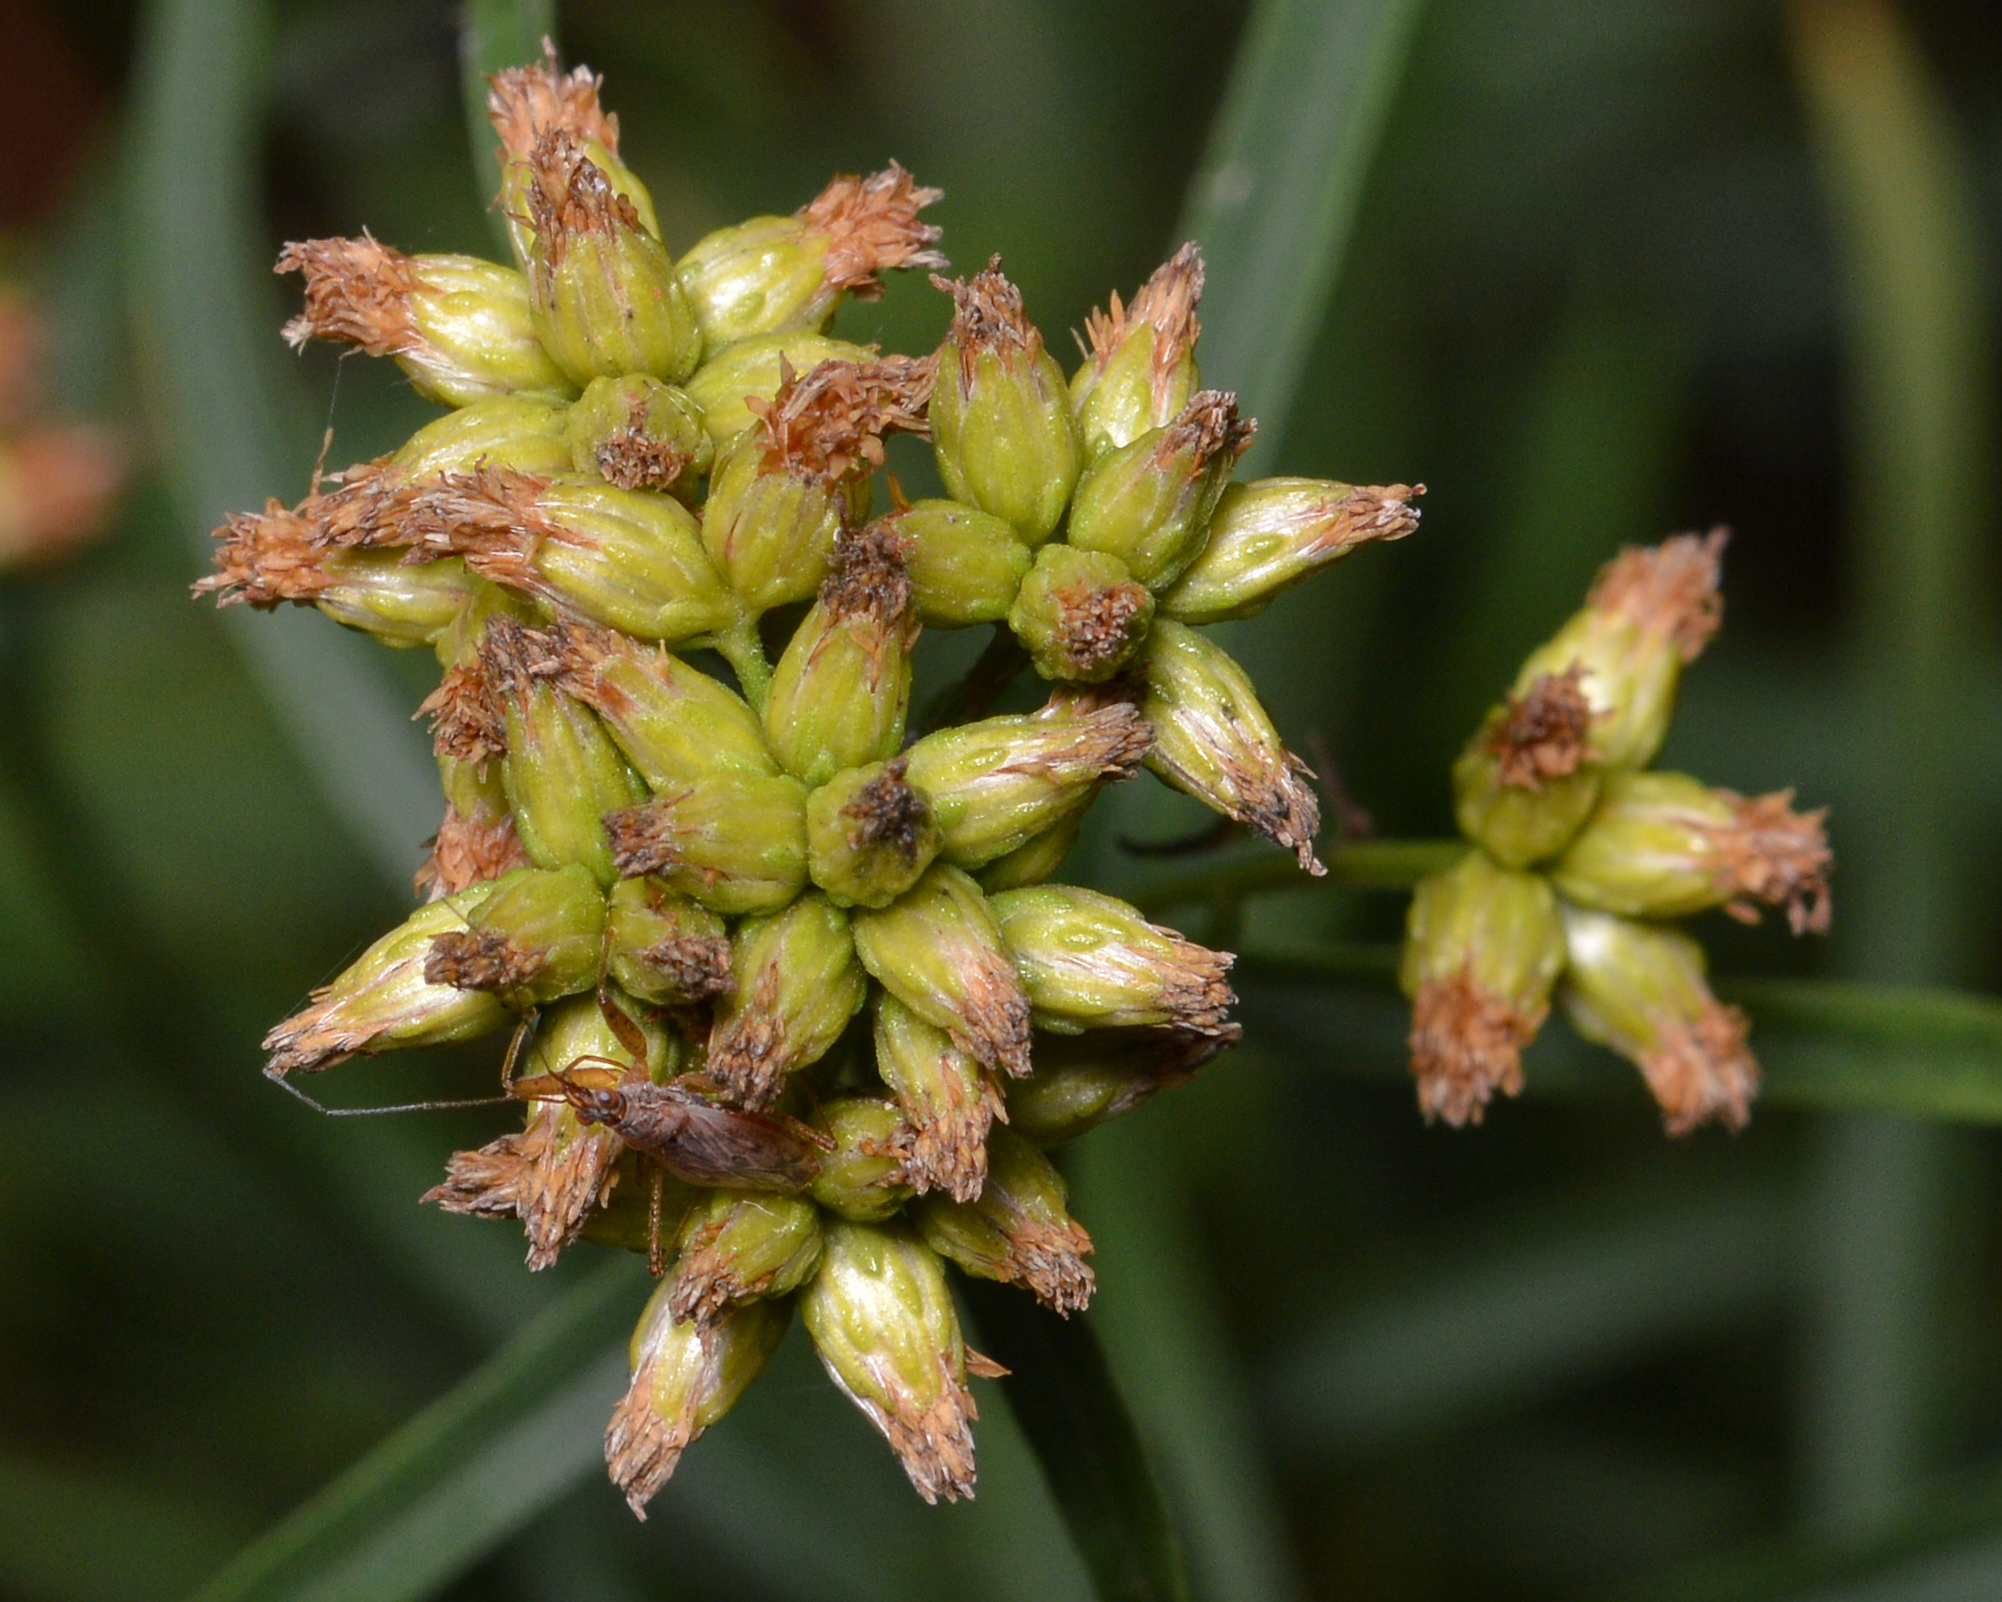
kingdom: Plantae
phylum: Tracheophyta
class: Magnoliopsida
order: Asterales
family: Asteraceae
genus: Euthamia
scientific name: Euthamia graminifolia
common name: Common goldentop
